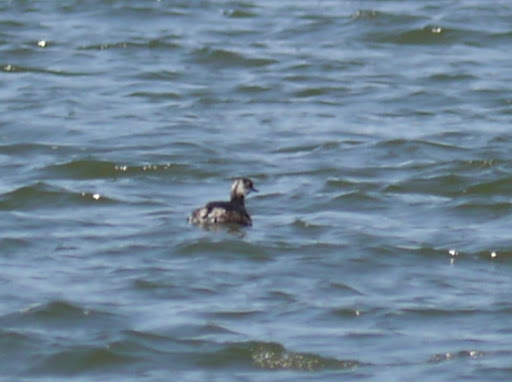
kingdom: Animalia
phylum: Chordata
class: Aves
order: Podicipediformes
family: Podicipedidae
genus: Podiceps
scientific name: Podiceps auritus
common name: Horned grebe
